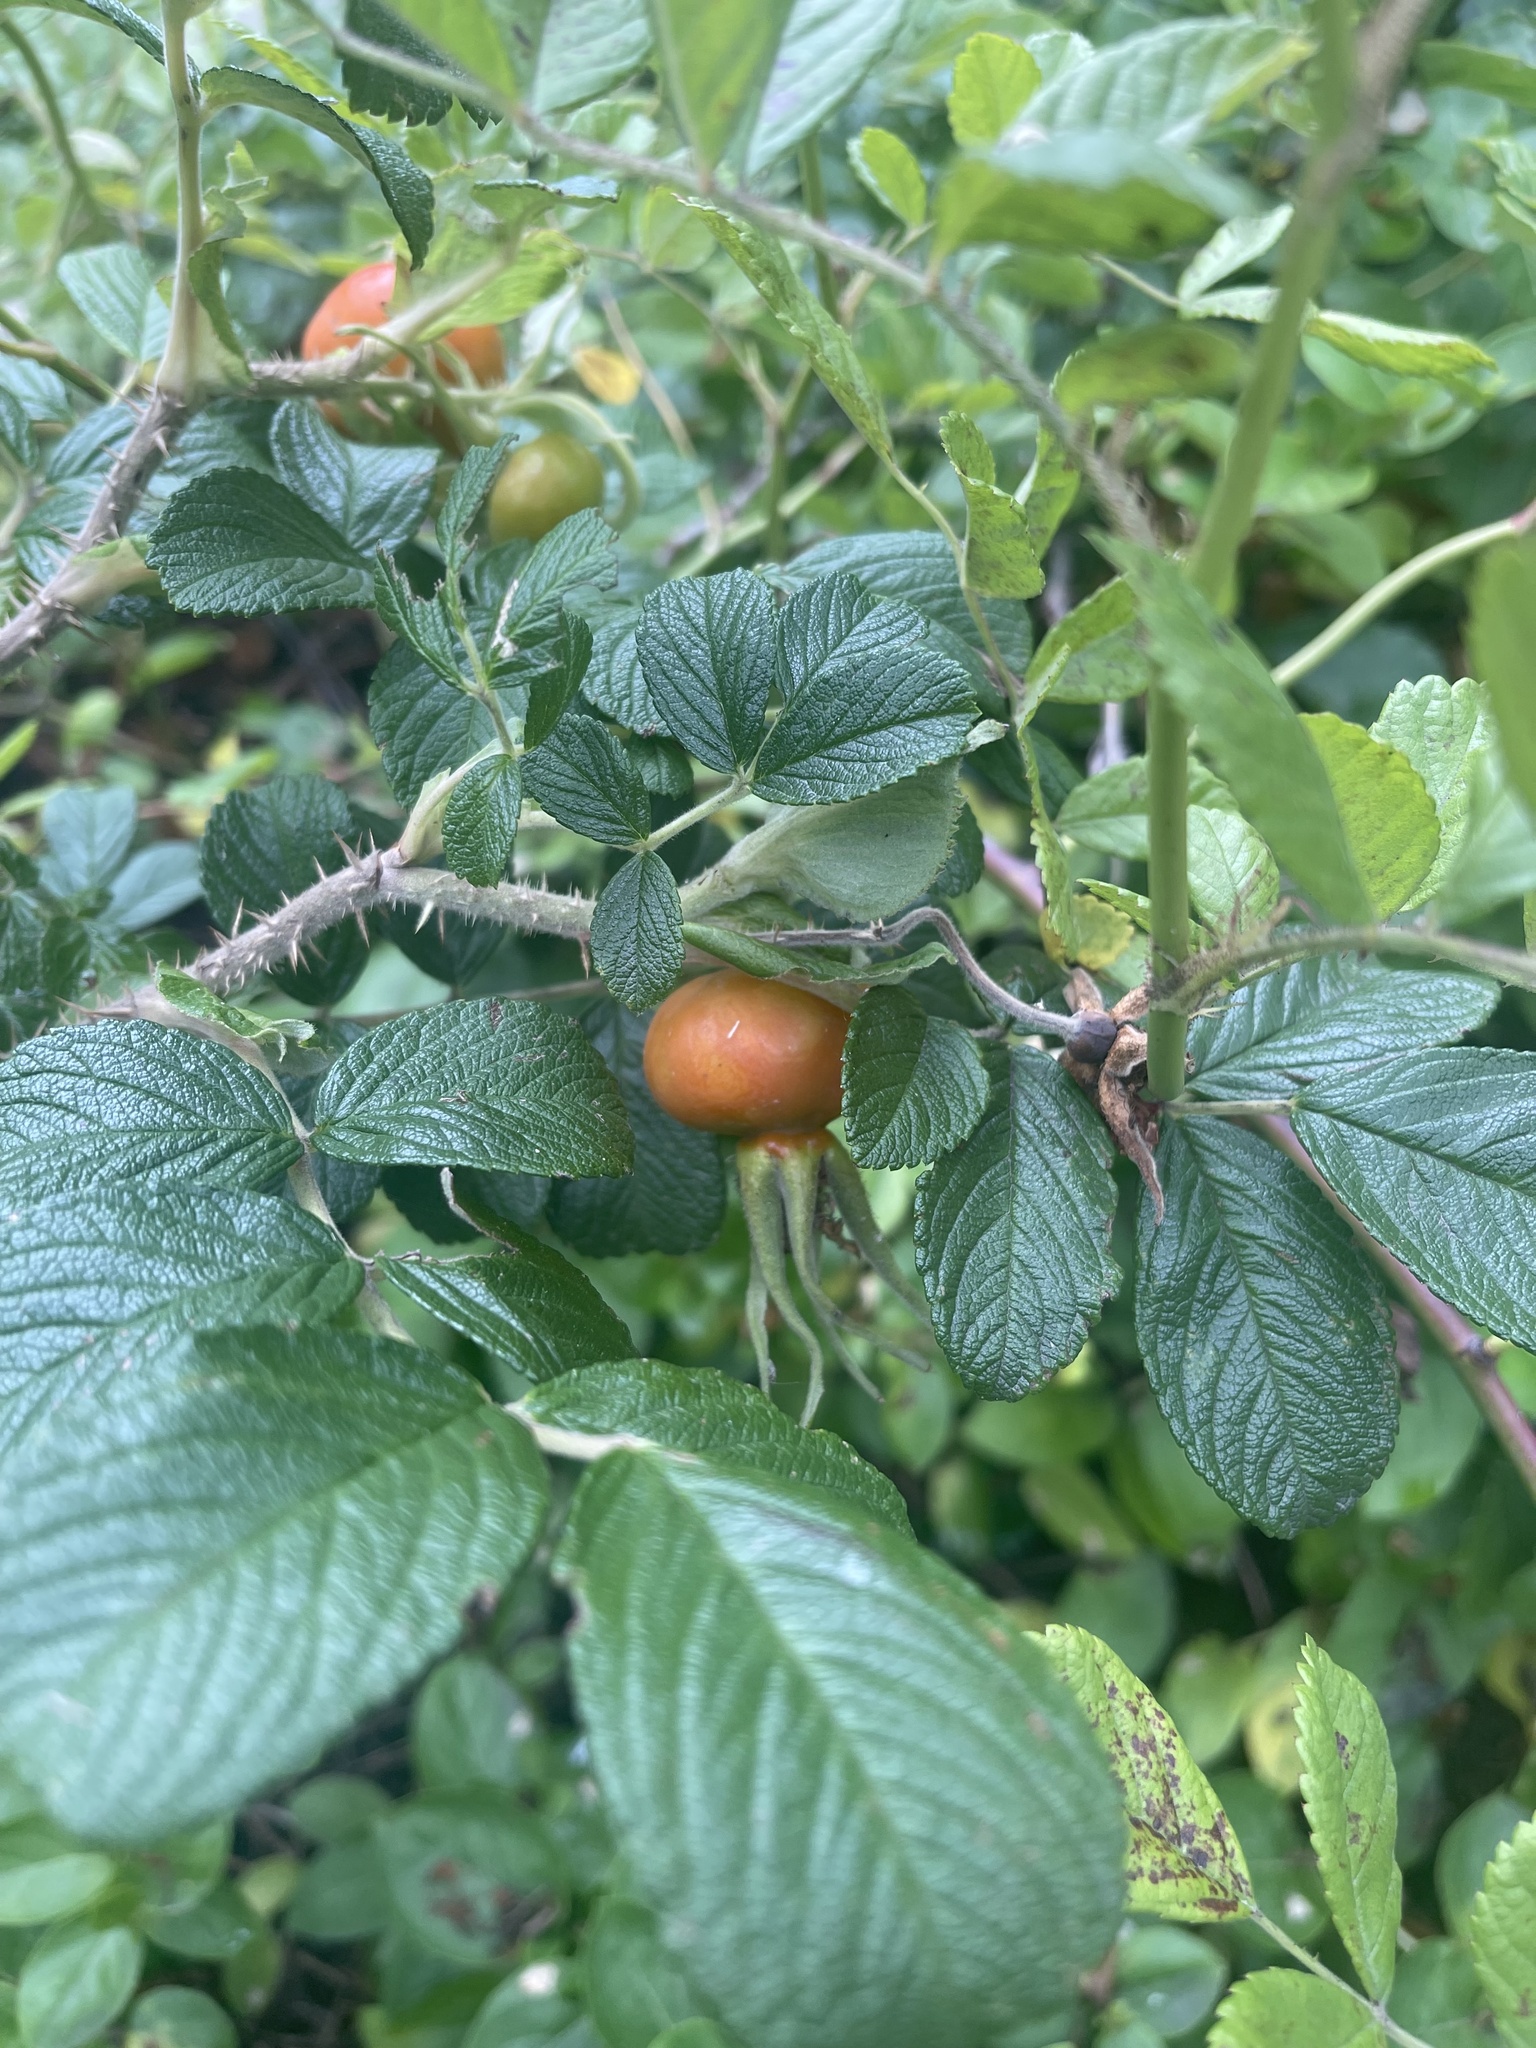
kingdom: Plantae
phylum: Tracheophyta
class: Magnoliopsida
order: Rosales
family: Rosaceae
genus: Rosa
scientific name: Rosa rugosa
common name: Japanese rose
